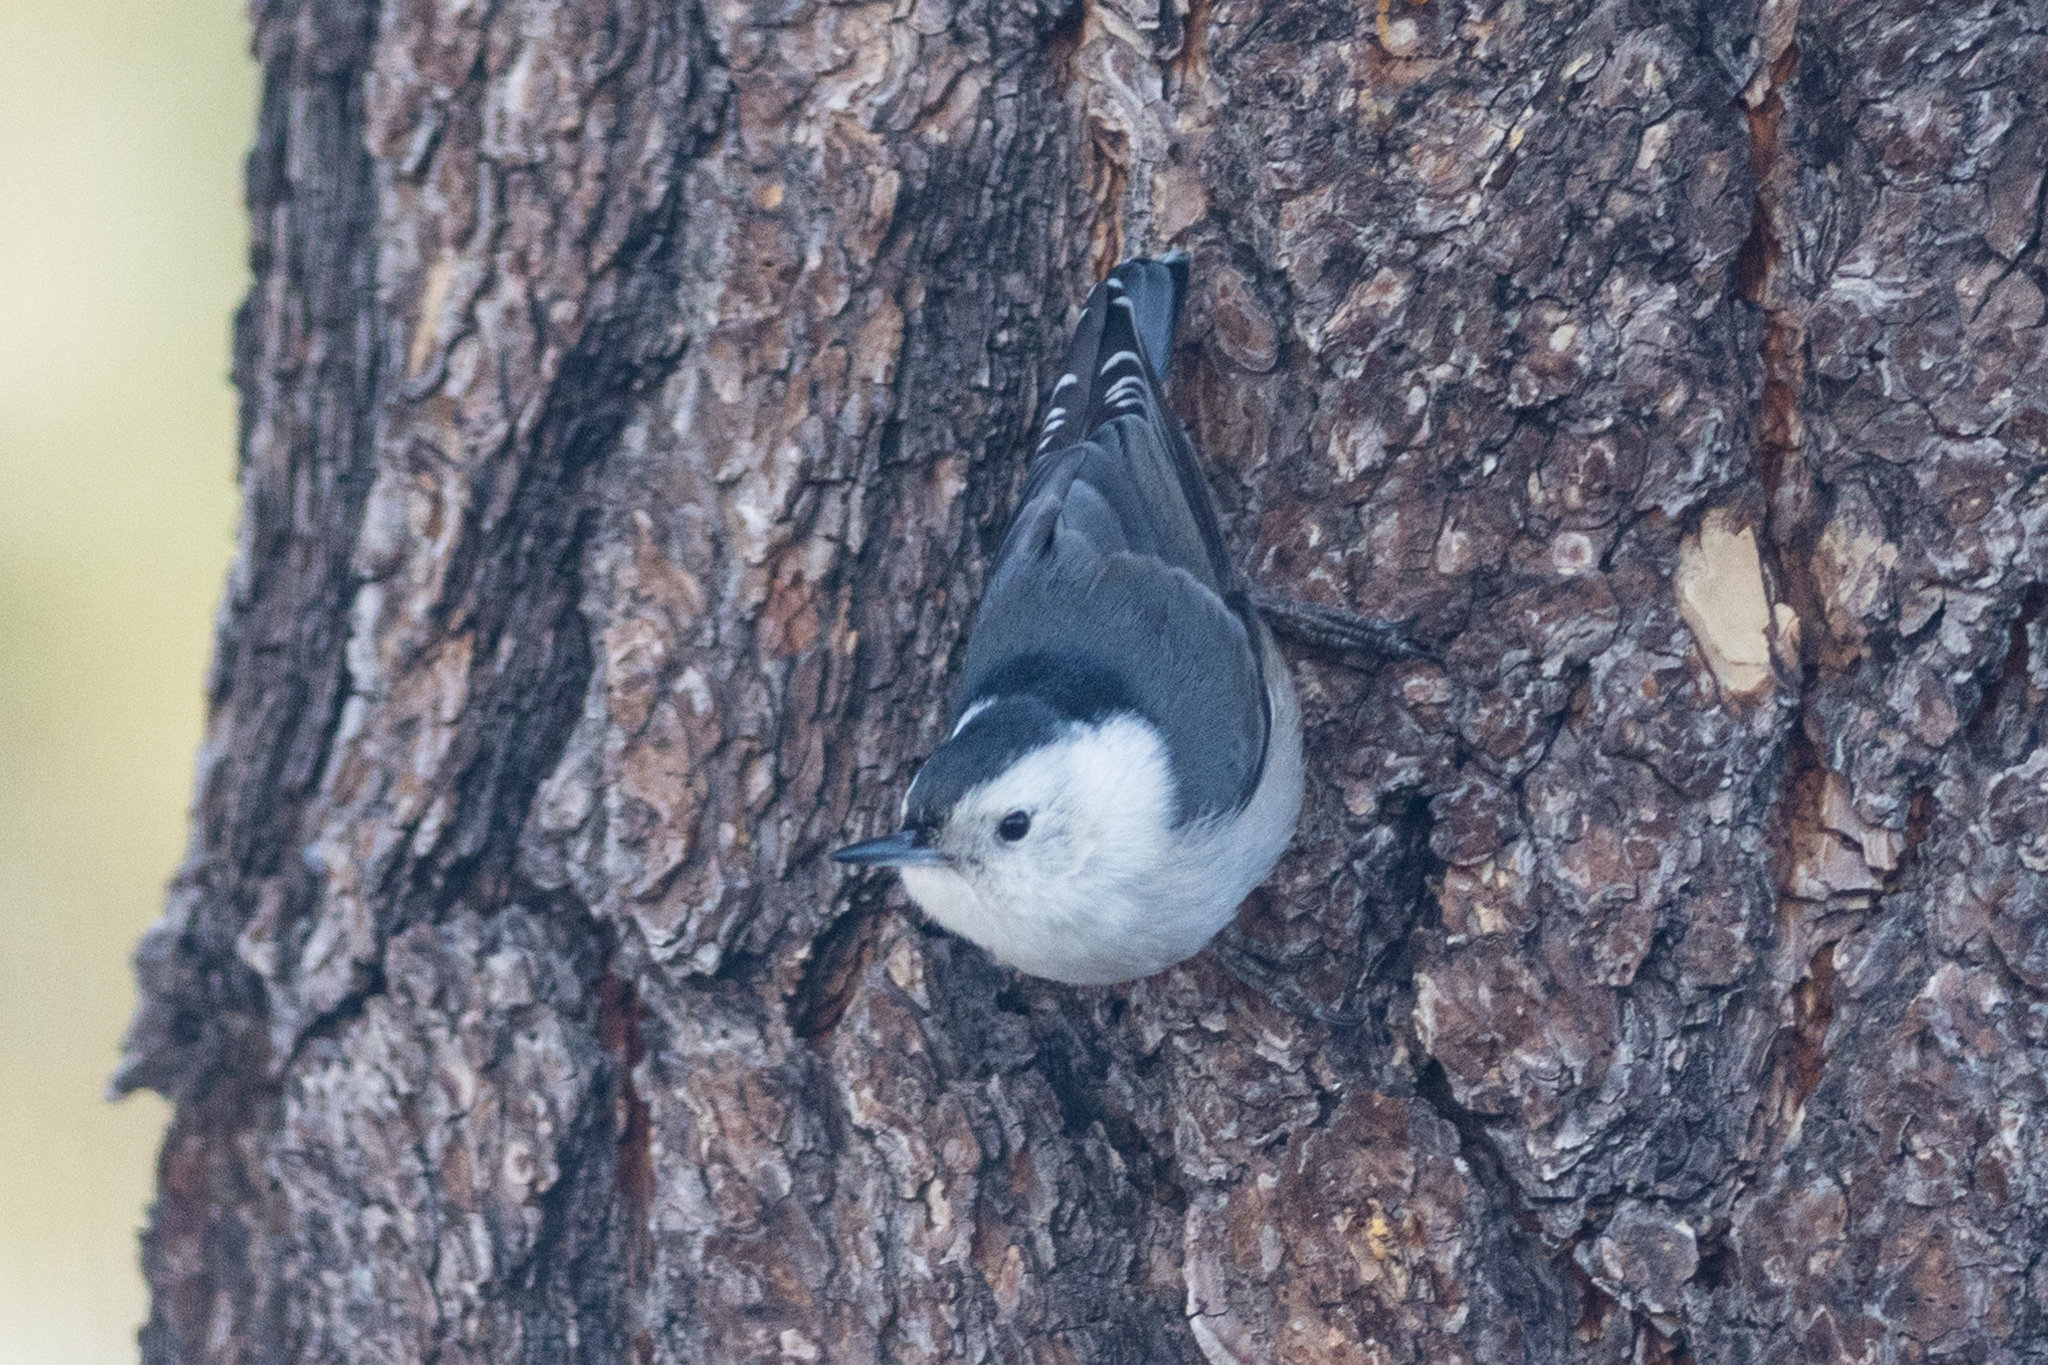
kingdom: Animalia
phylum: Chordata
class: Aves
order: Passeriformes
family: Sittidae
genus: Sitta
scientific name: Sitta carolinensis
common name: White-breasted nuthatch
